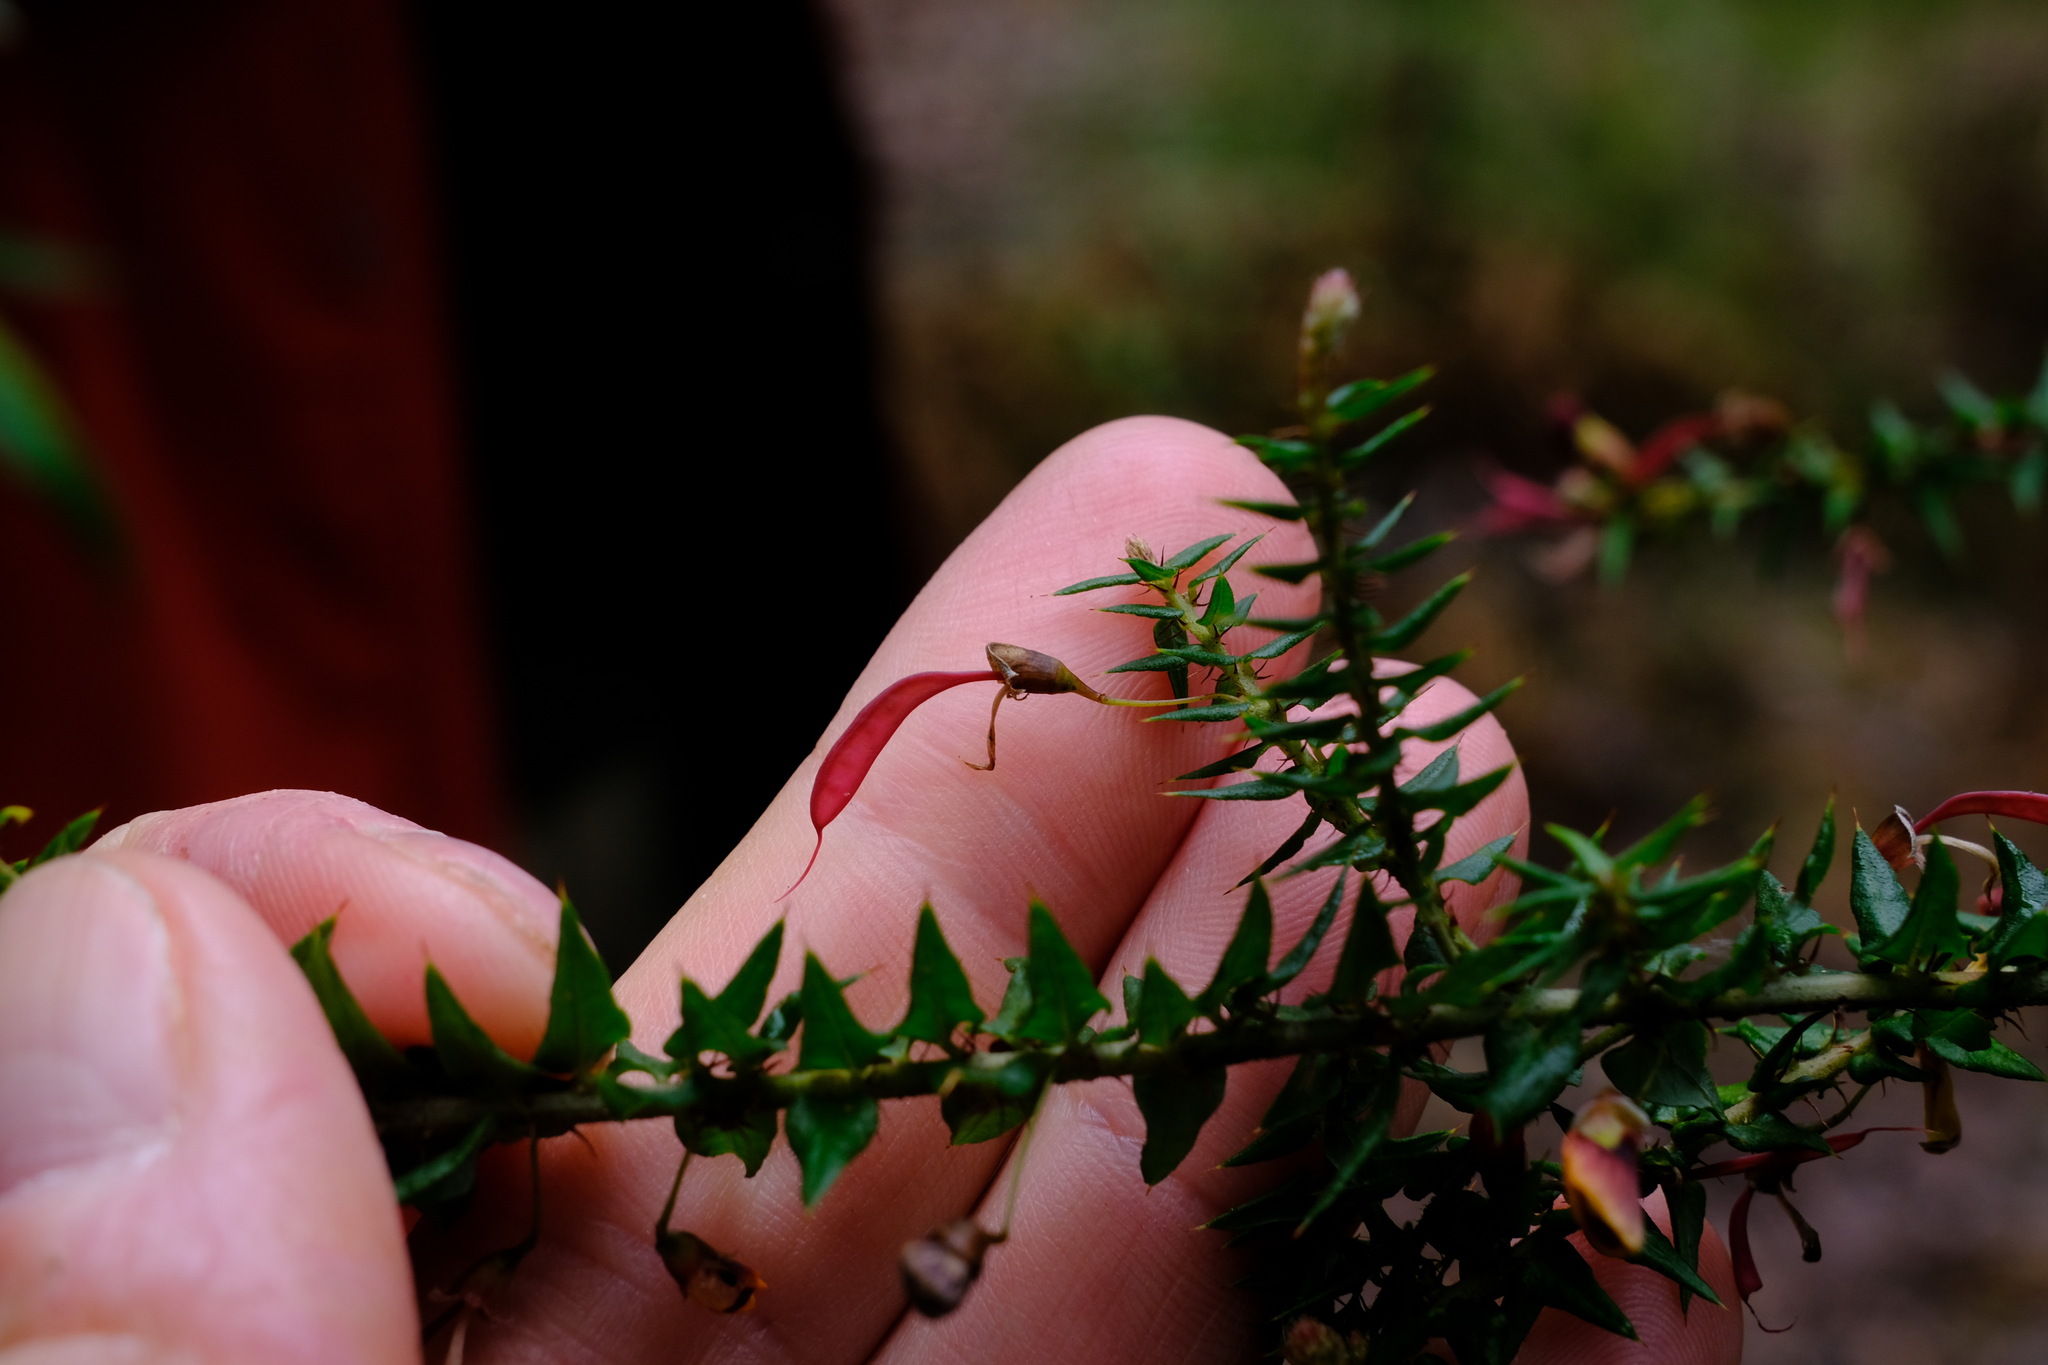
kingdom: Plantae
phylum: Tracheophyta
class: Magnoliopsida
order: Fabales
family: Fabaceae
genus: Bossiaea
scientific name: Bossiaea cinerea
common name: Showy bossiaea
